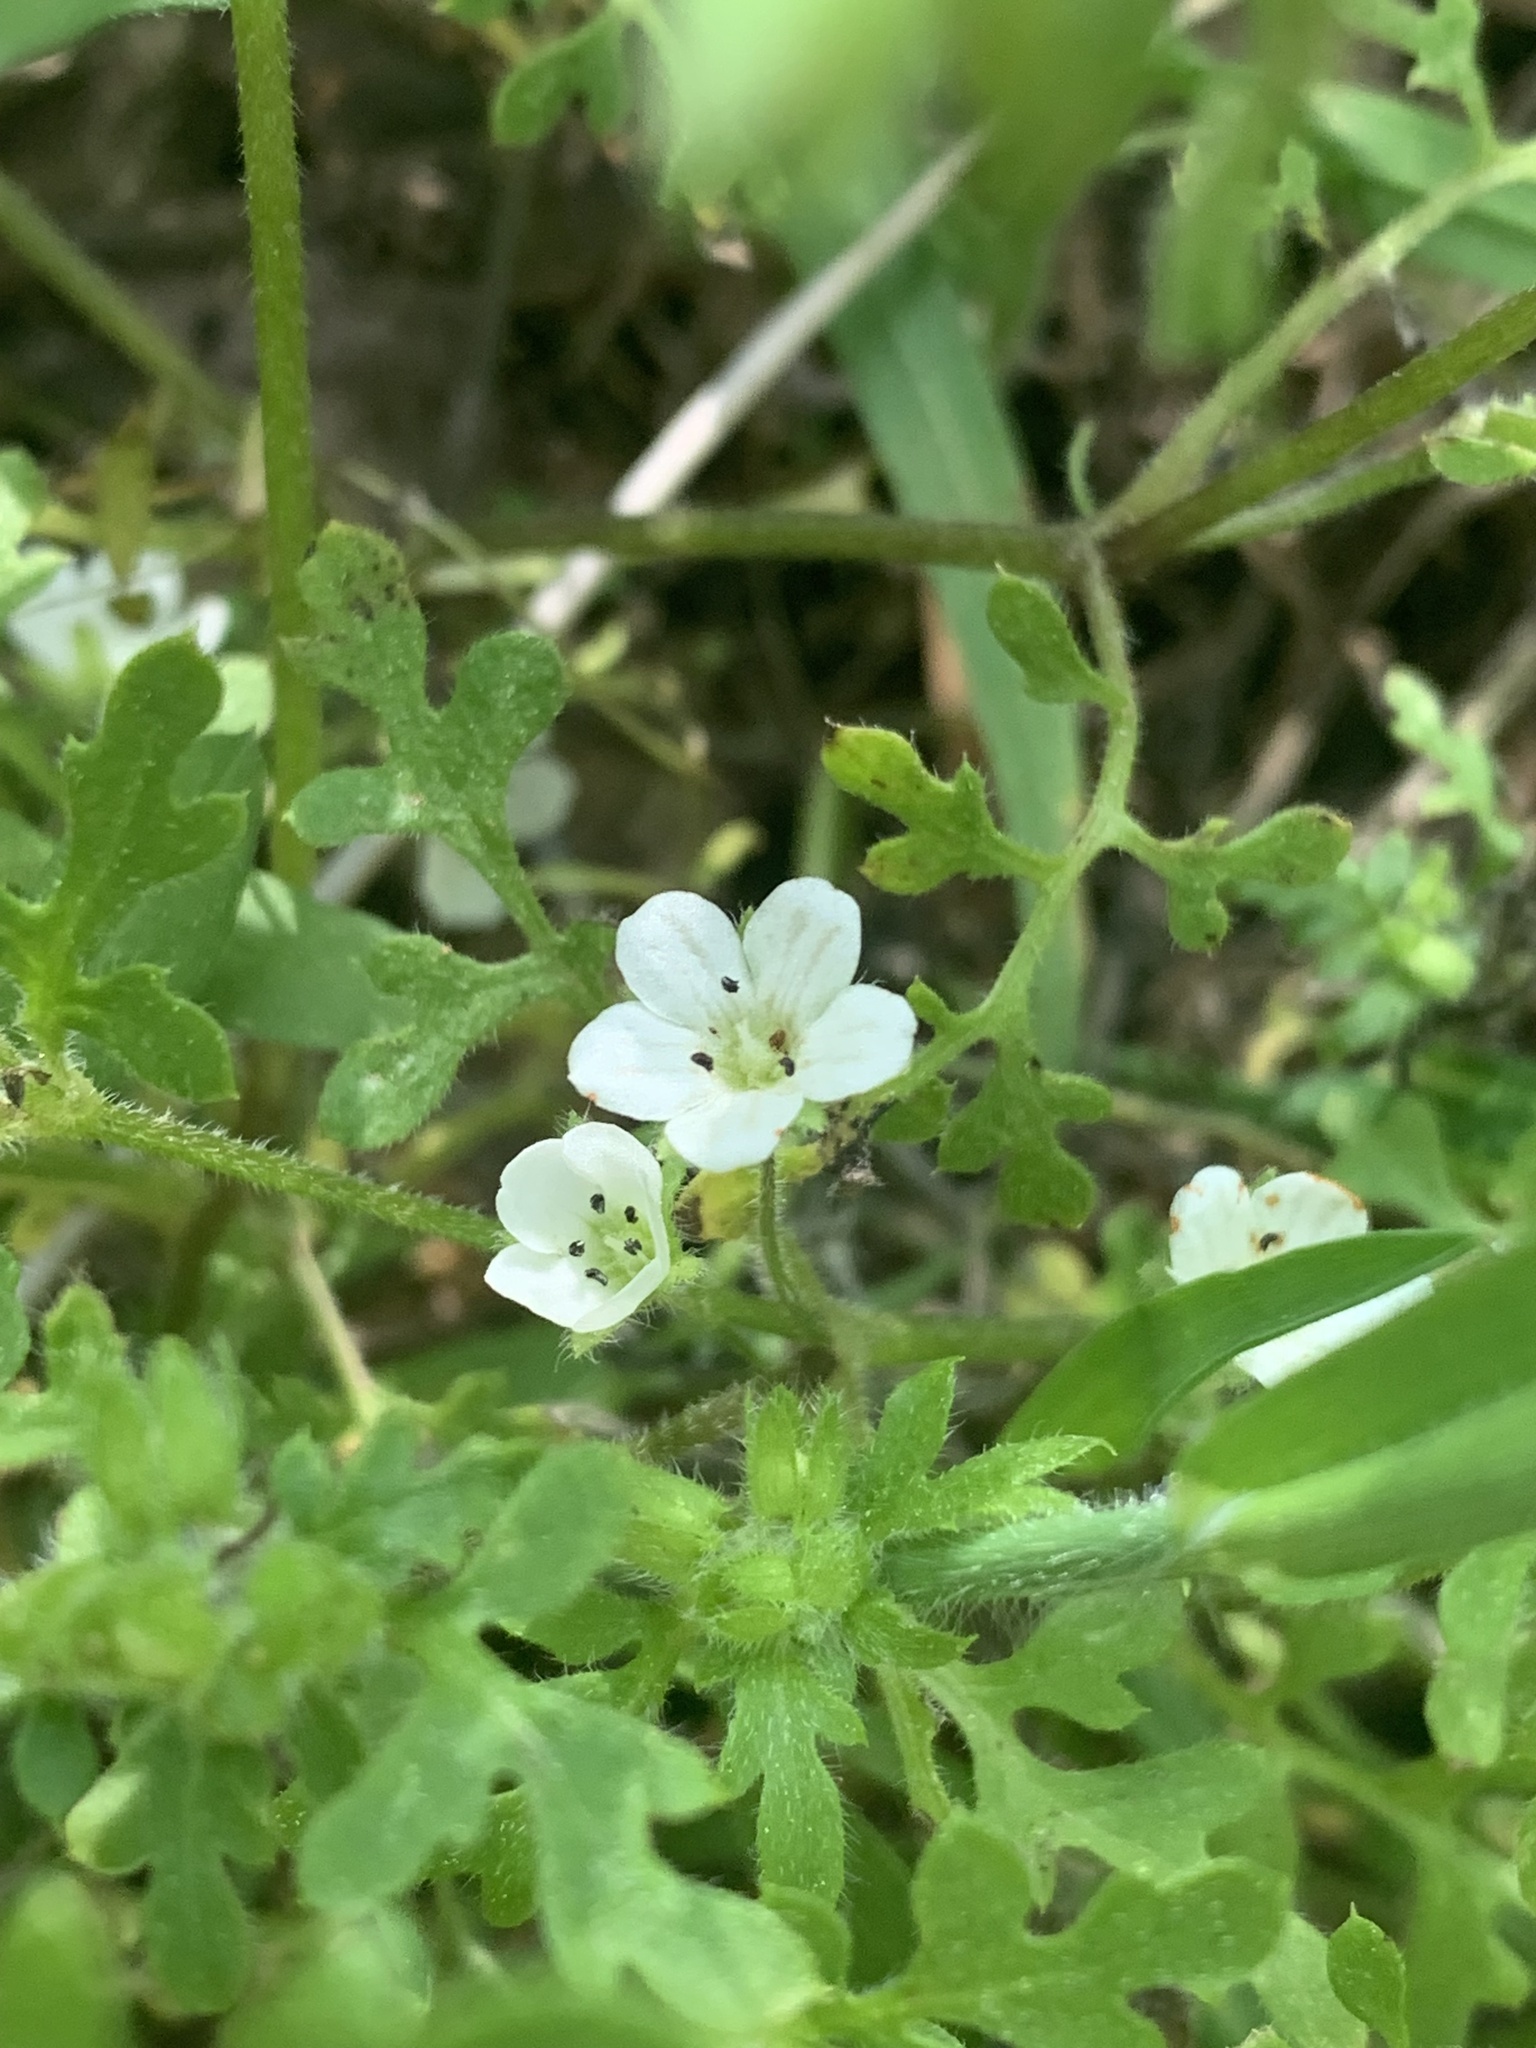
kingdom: Plantae
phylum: Tracheophyta
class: Magnoliopsida
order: Boraginales
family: Hydrophyllaceae
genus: Nemophila
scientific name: Nemophila heterophylla
